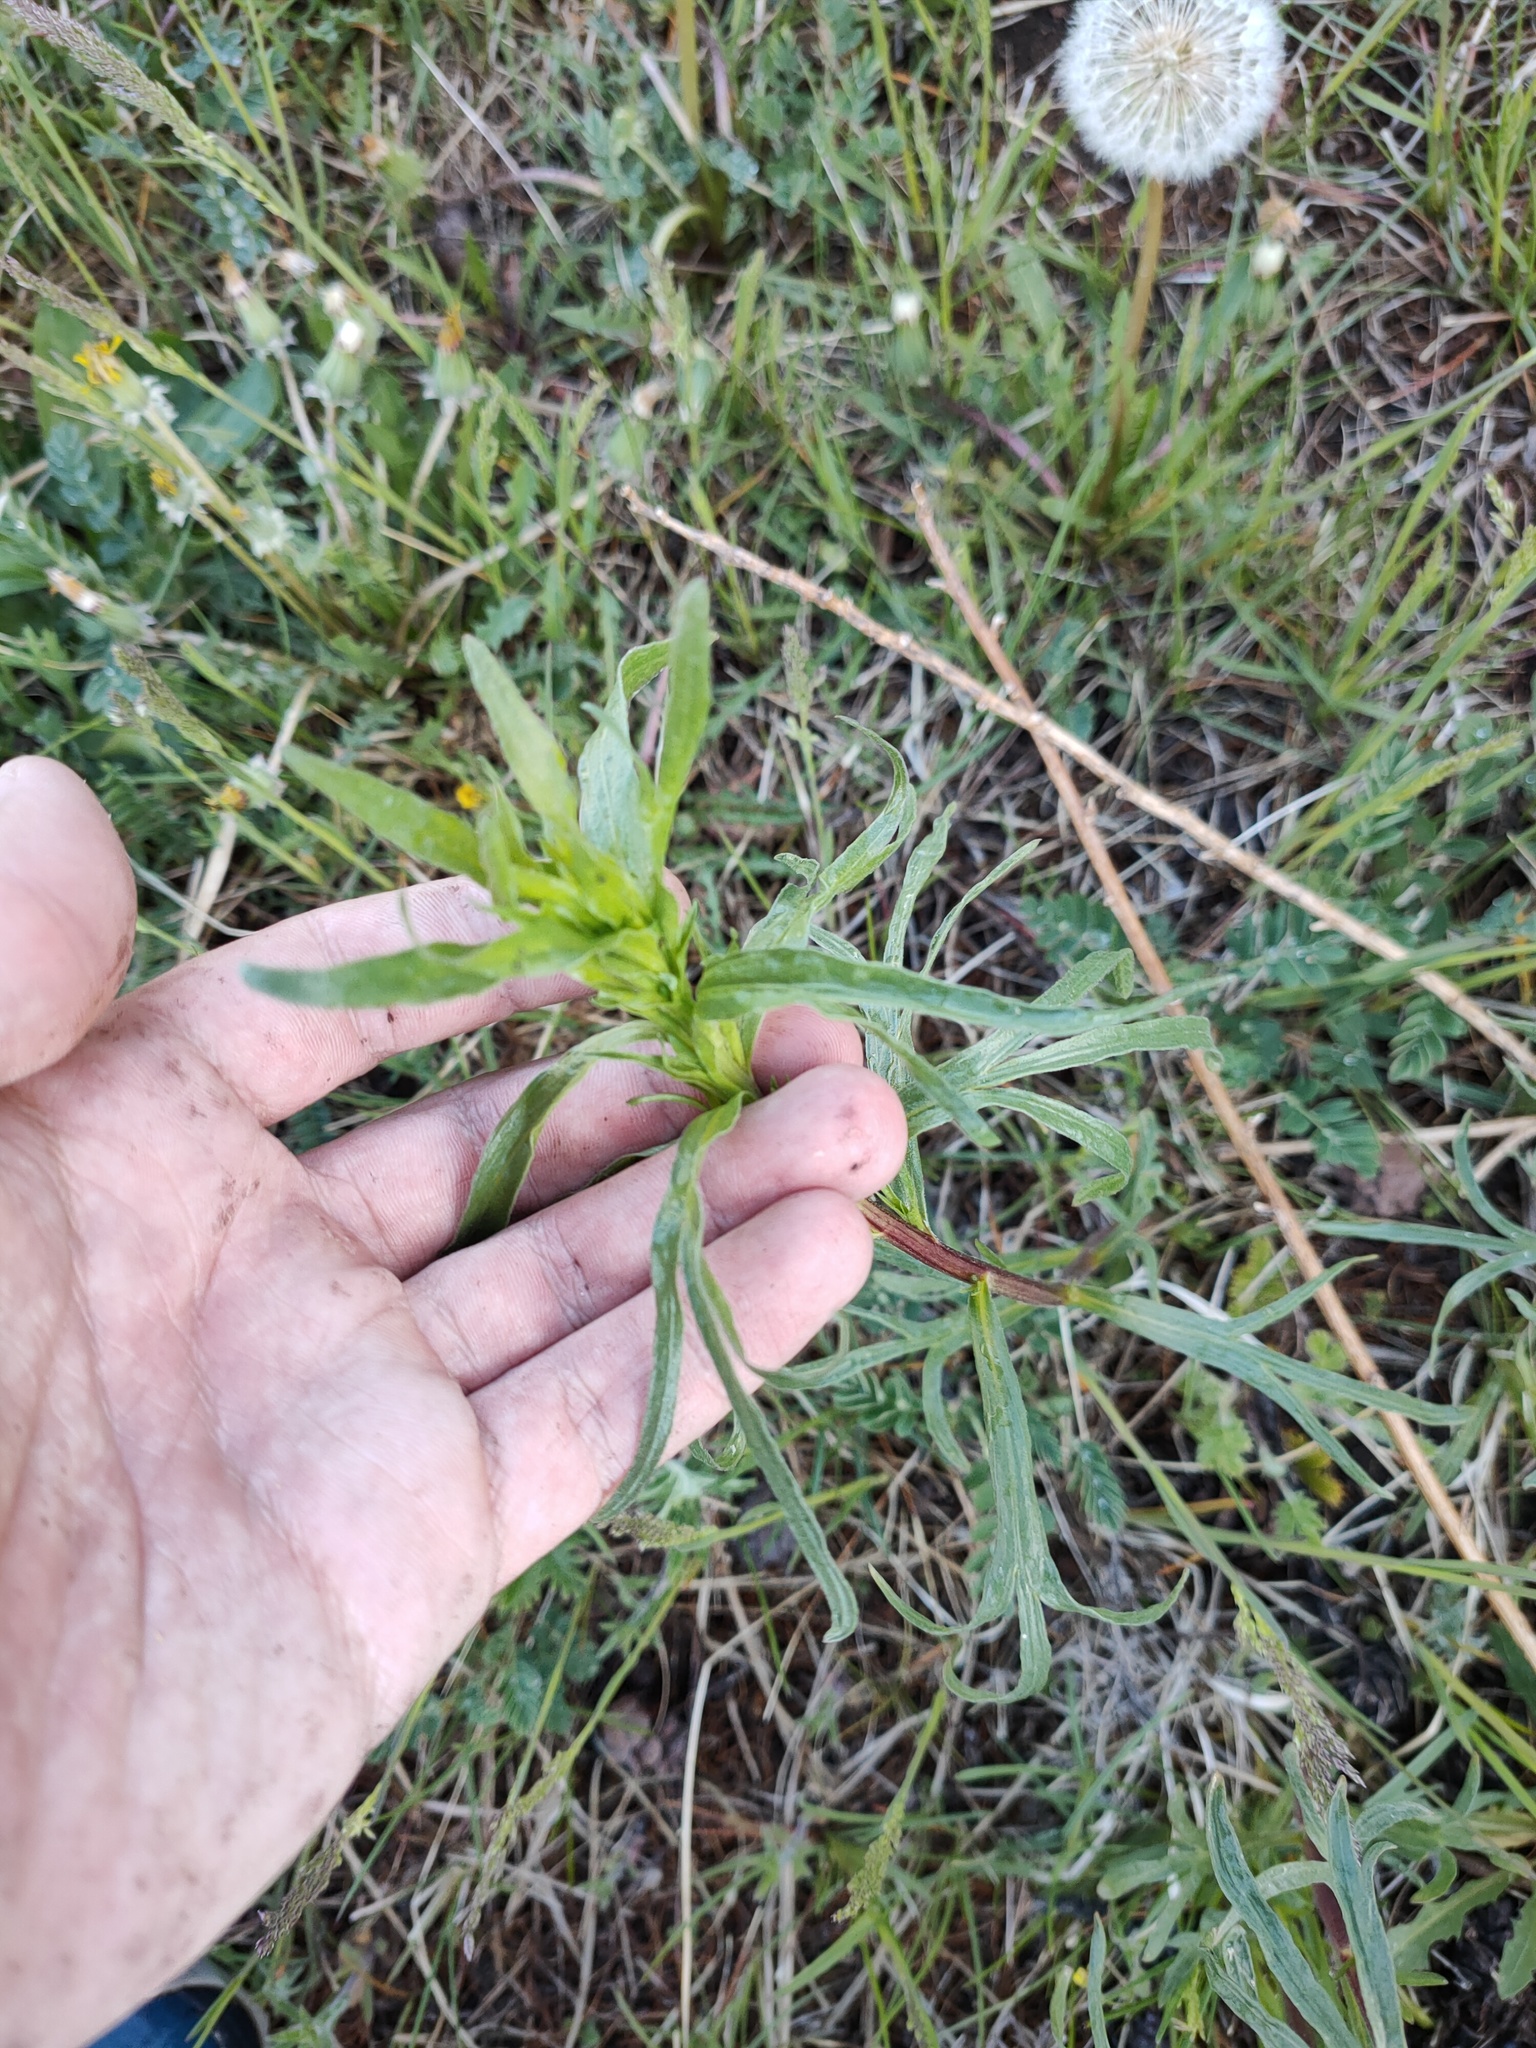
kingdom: Plantae
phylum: Tracheophyta
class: Magnoliopsida
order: Asterales
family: Asteraceae
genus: Artemisia
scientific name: Artemisia dracunculus
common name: Tarragon
